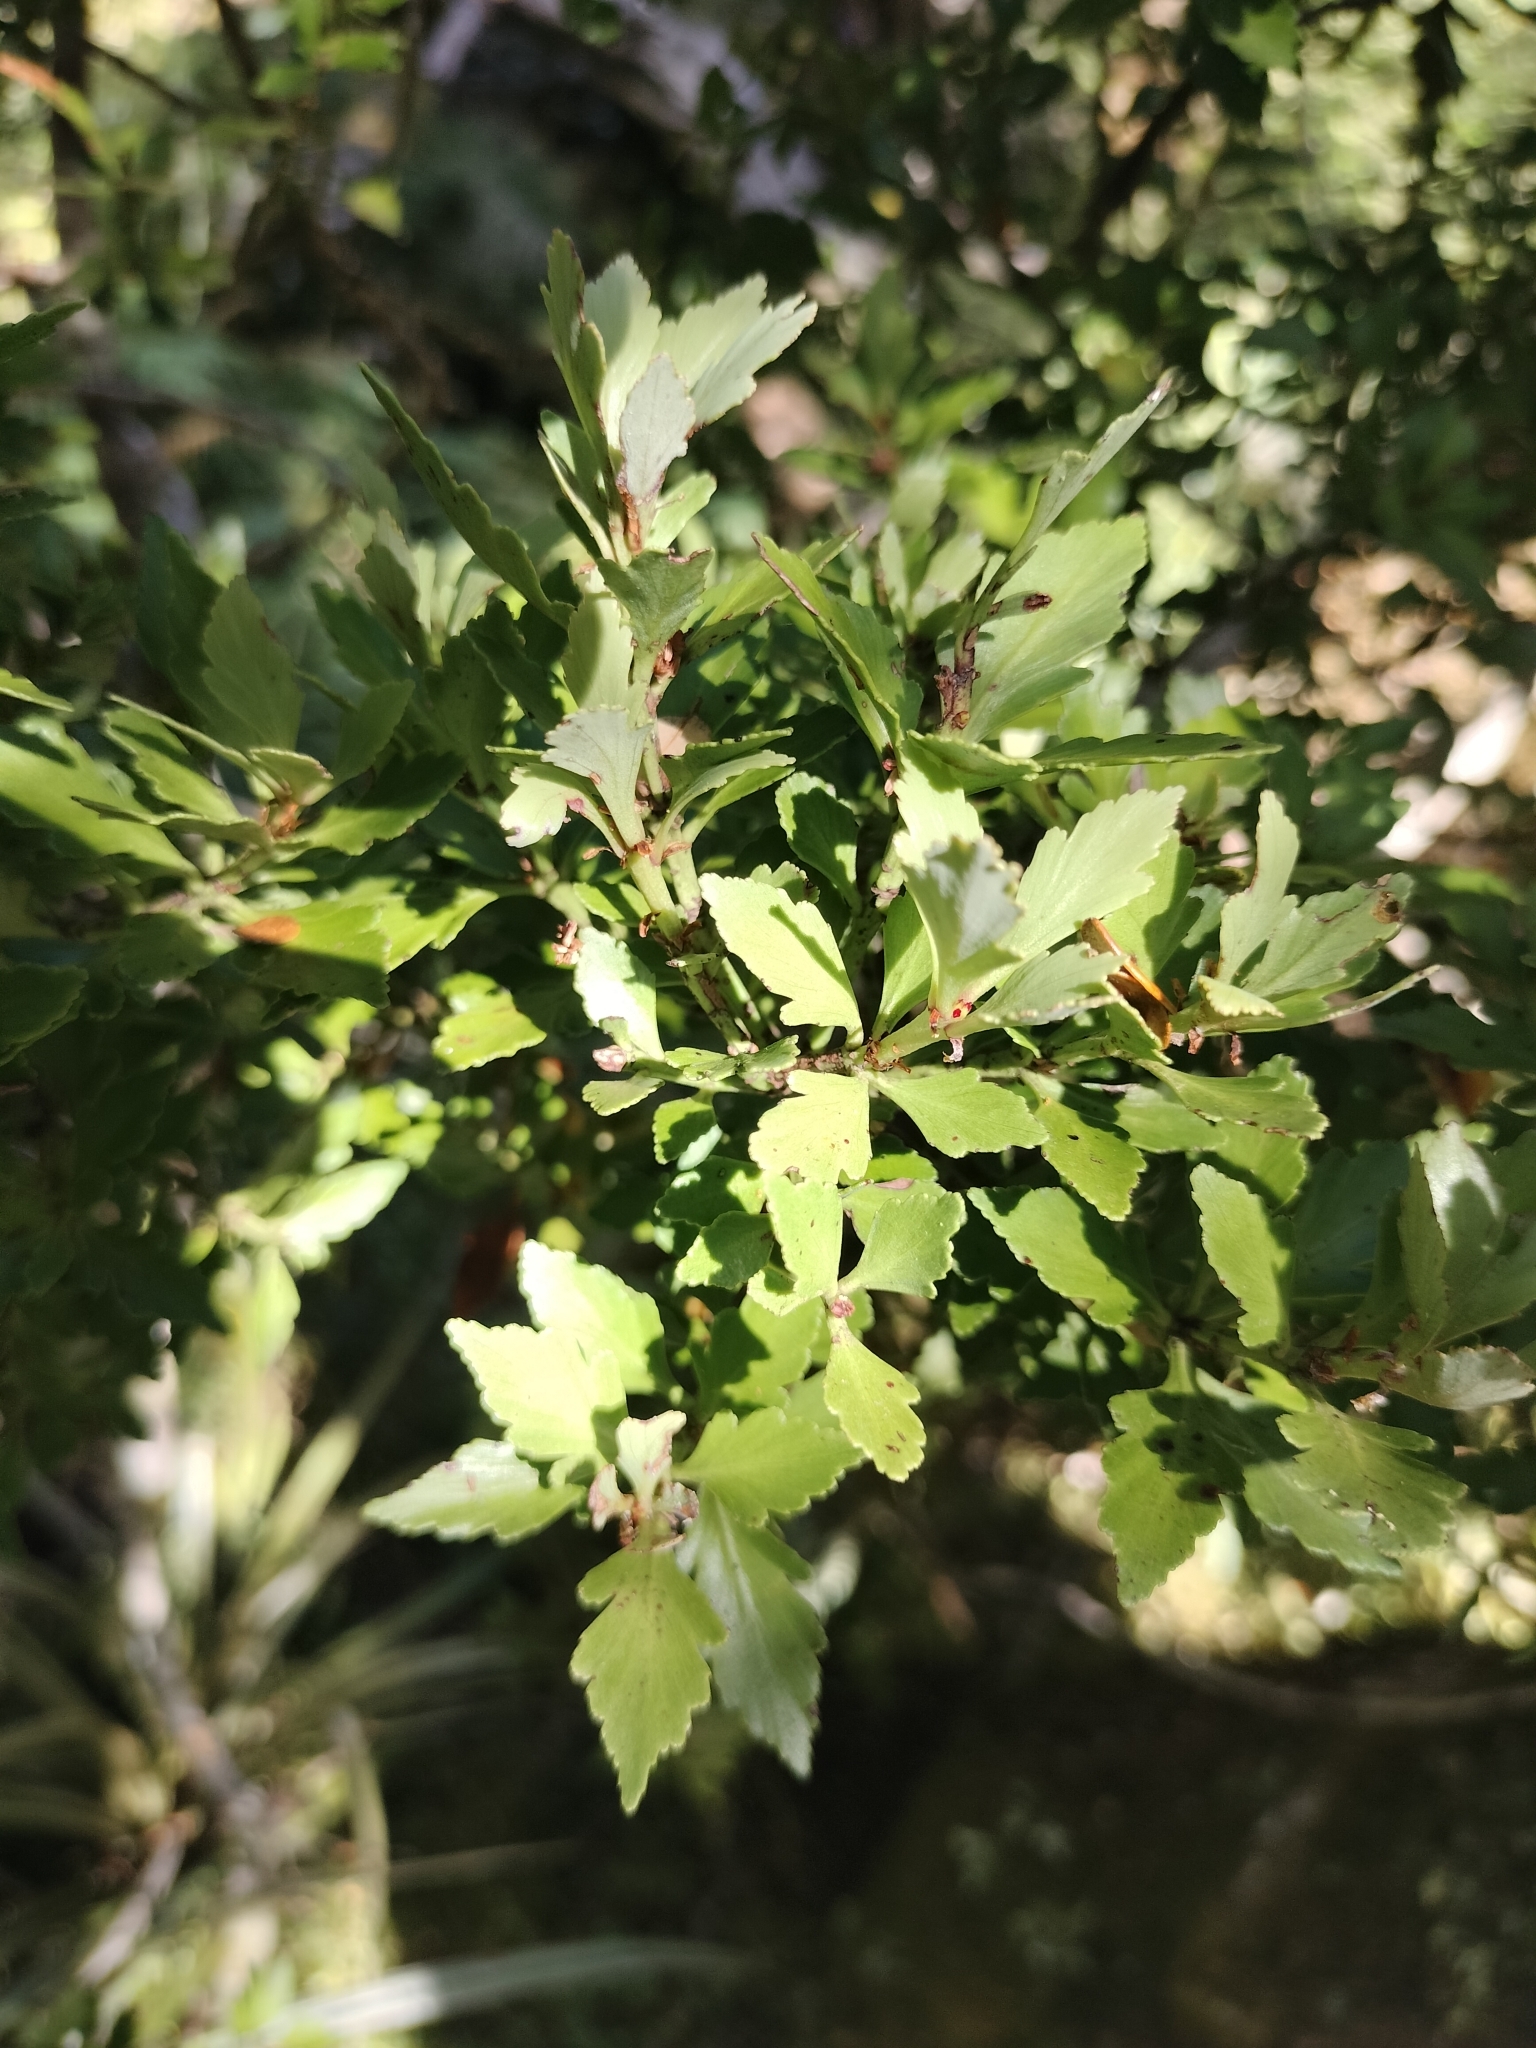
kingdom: Plantae
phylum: Tracheophyta
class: Pinopsida
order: Pinales
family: Phyllocladaceae
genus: Phyllocladus
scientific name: Phyllocladus trichomanoides
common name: Celery pine
